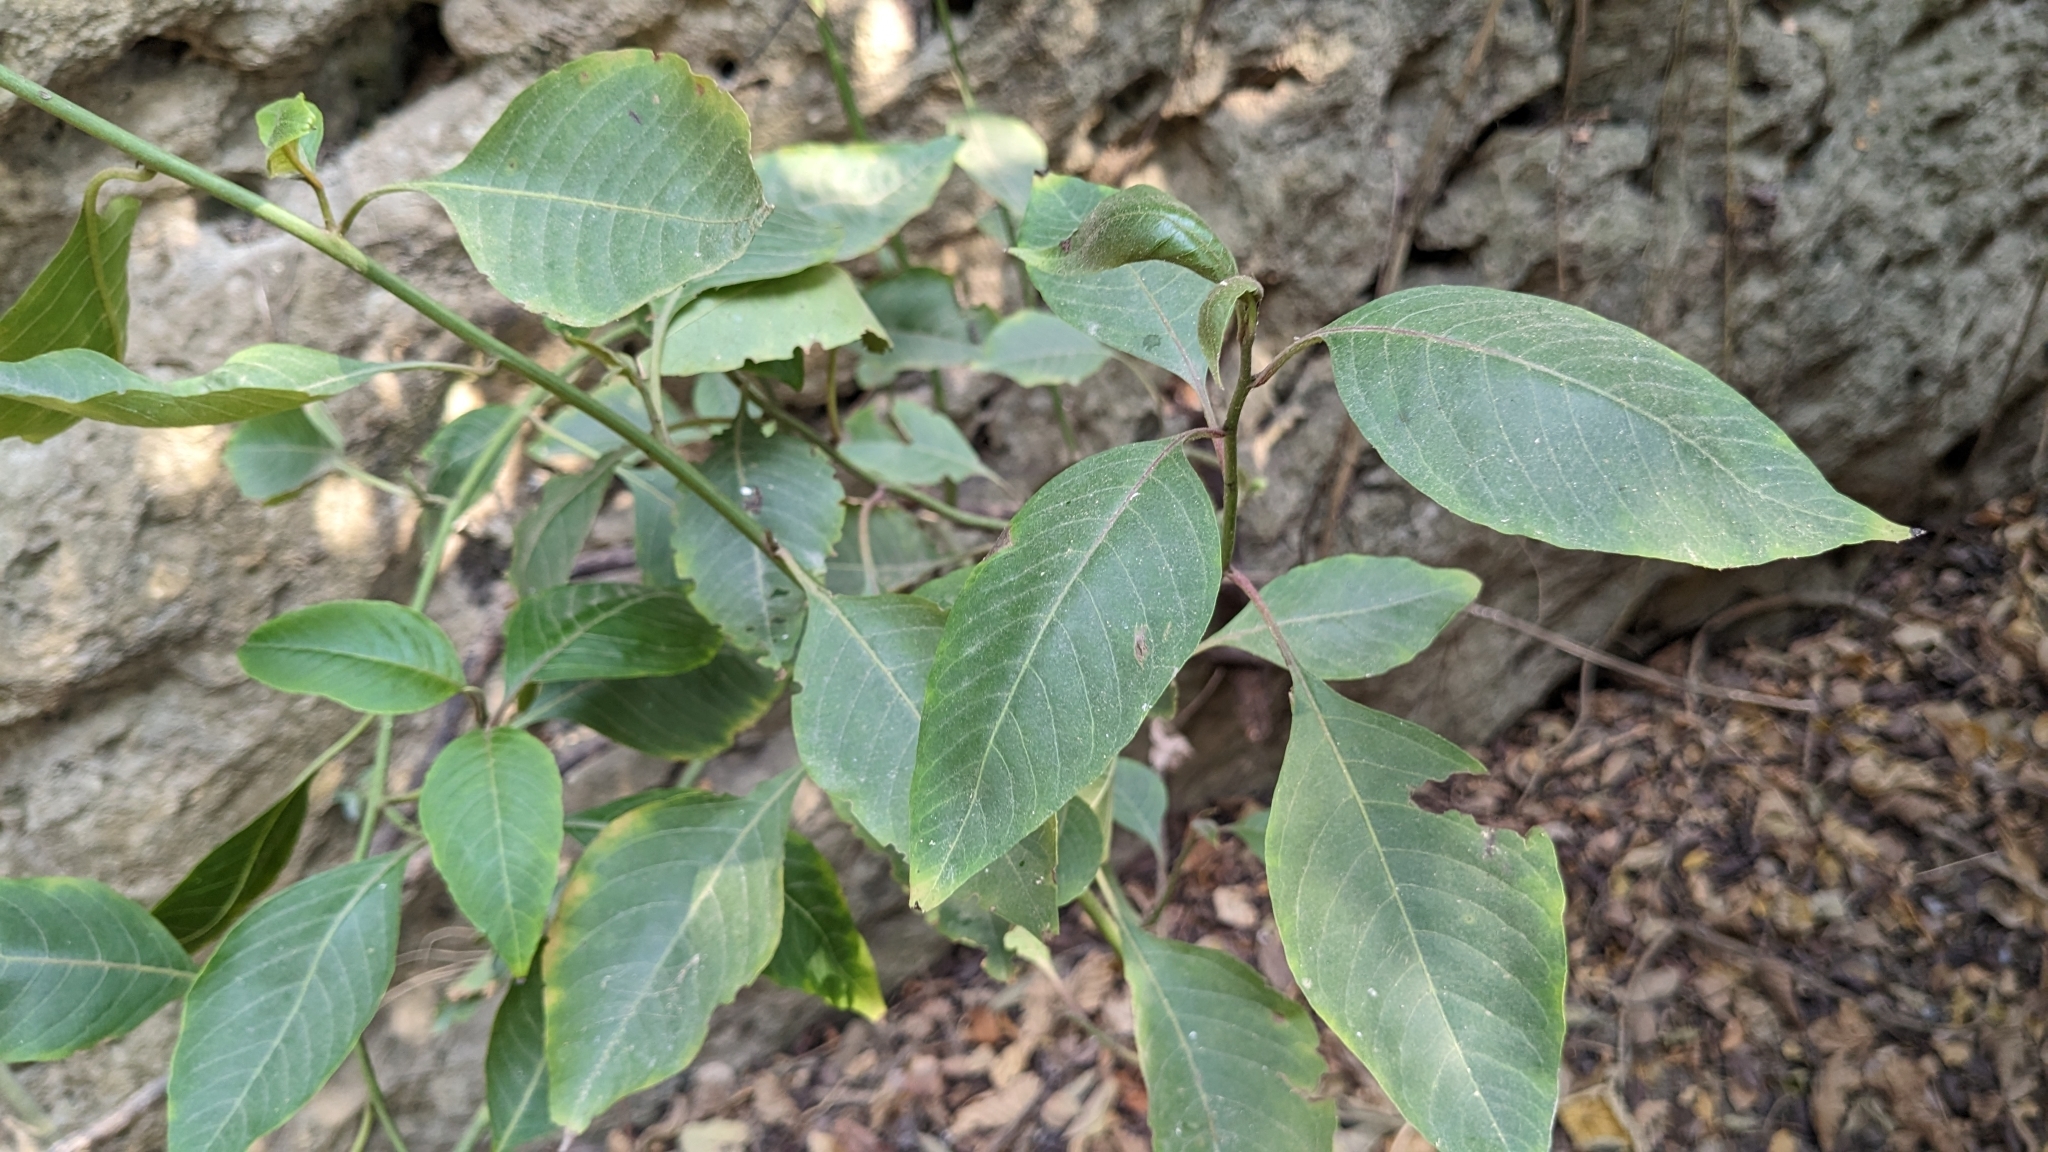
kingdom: Plantae
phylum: Tracheophyta
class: Magnoliopsida
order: Caryophyllales
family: Amaranthaceae
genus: Deeringia
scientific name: Deeringia polysperma
